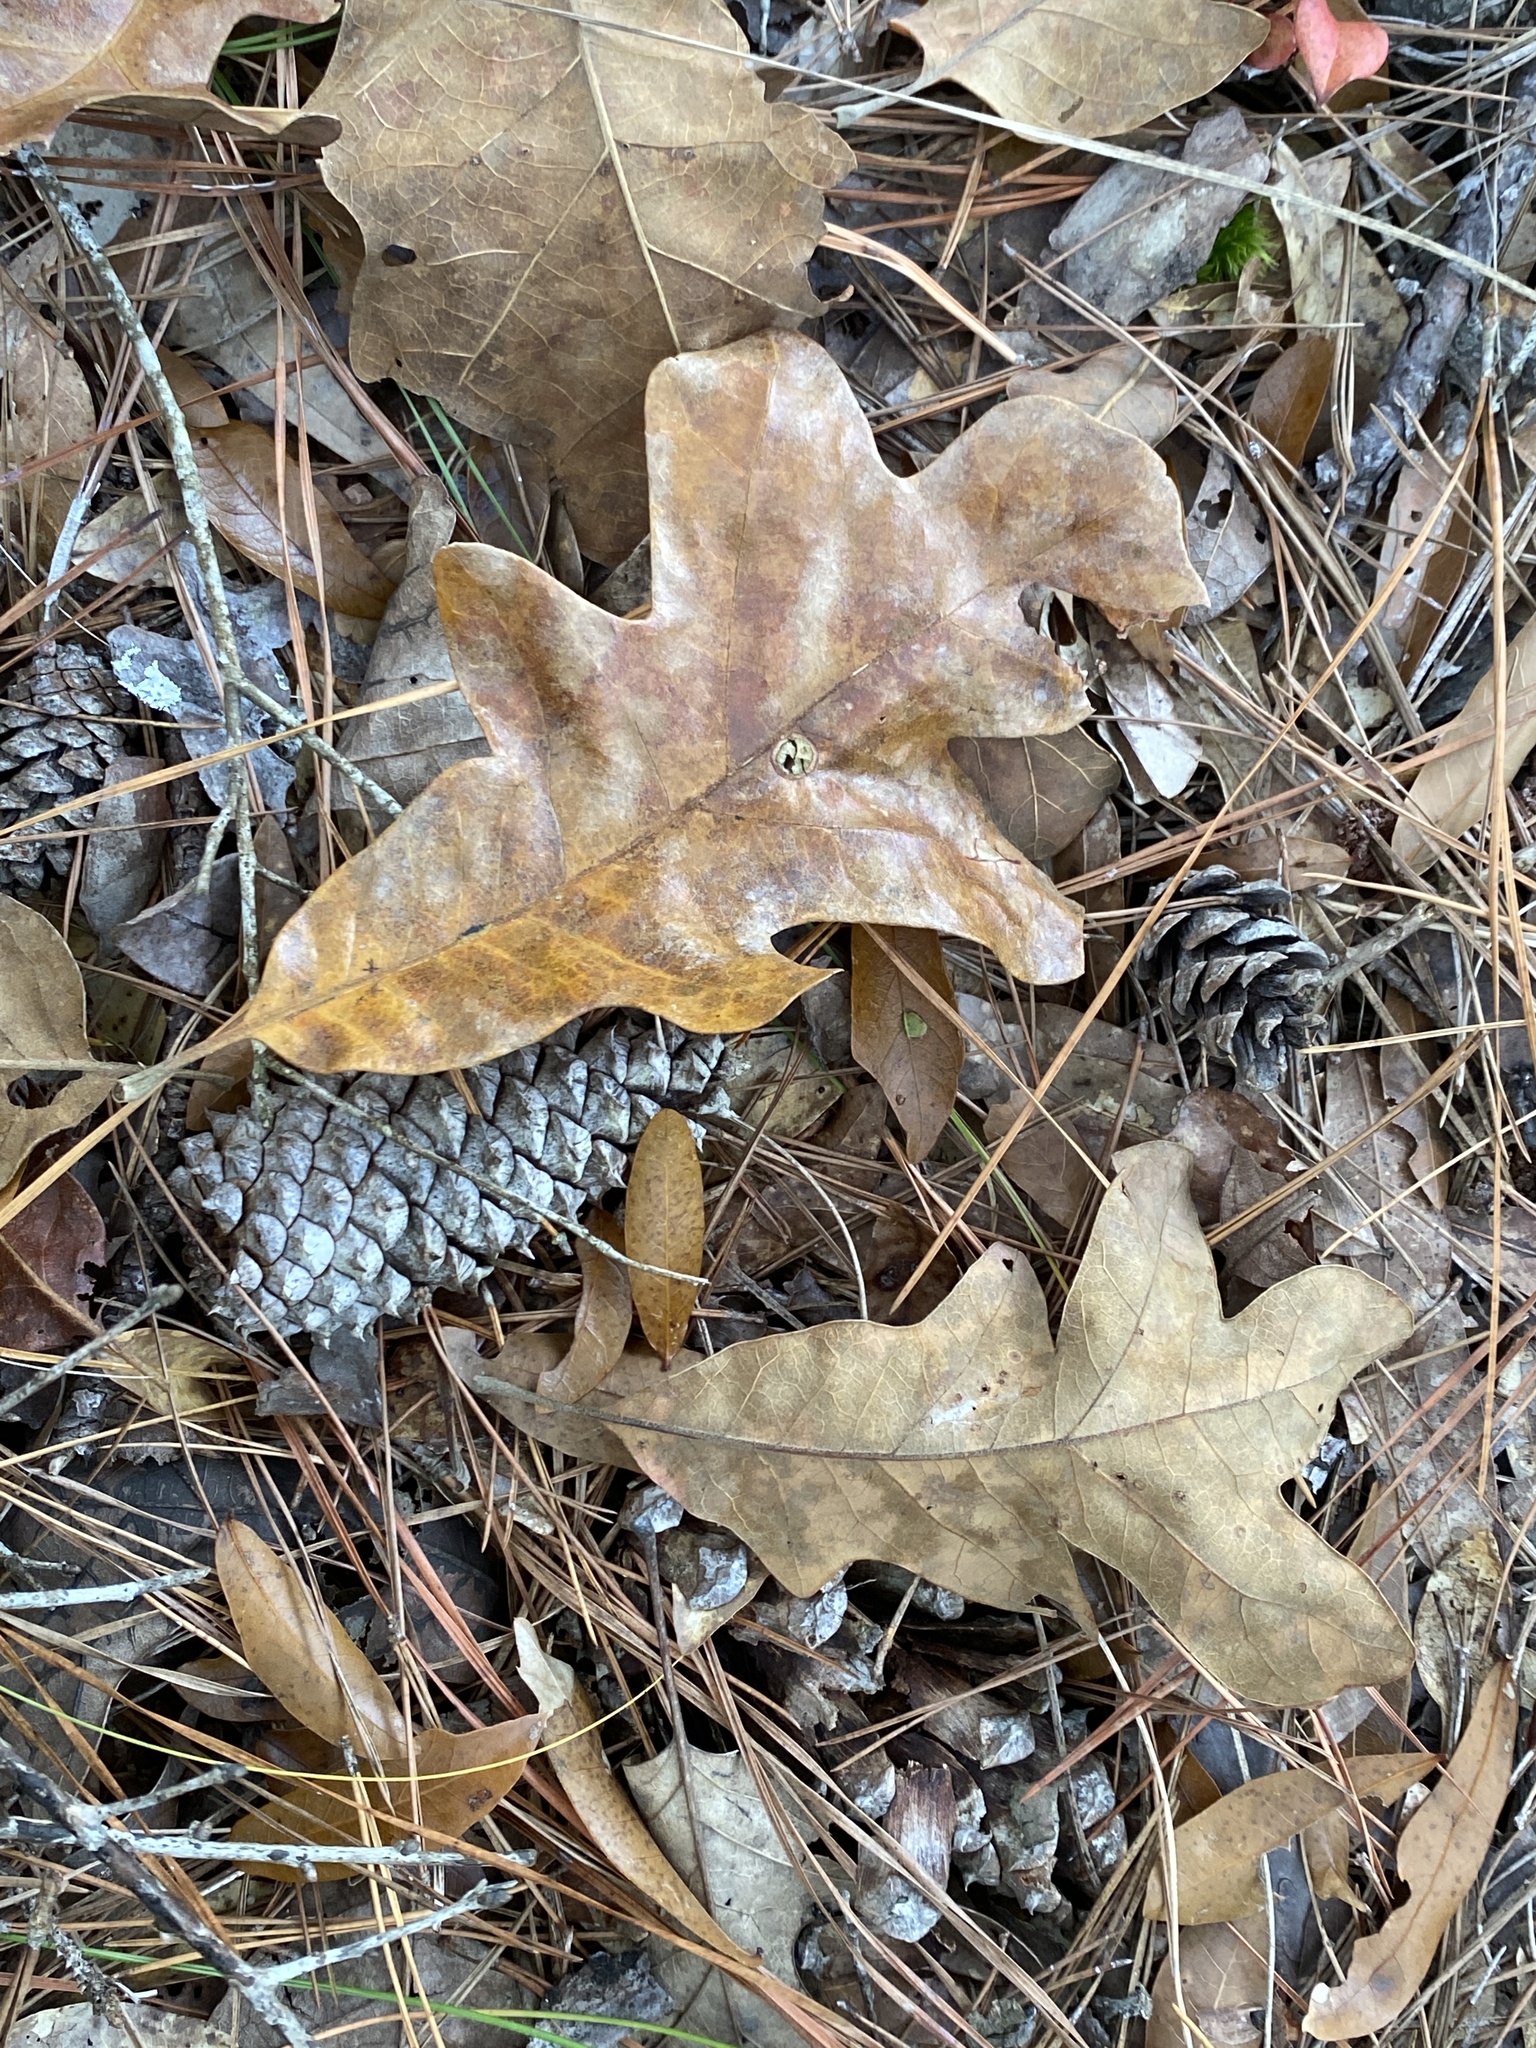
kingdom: Plantae
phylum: Tracheophyta
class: Magnoliopsida
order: Fagales
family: Fagaceae
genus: Quercus
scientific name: Quercus stellata
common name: Post oak
